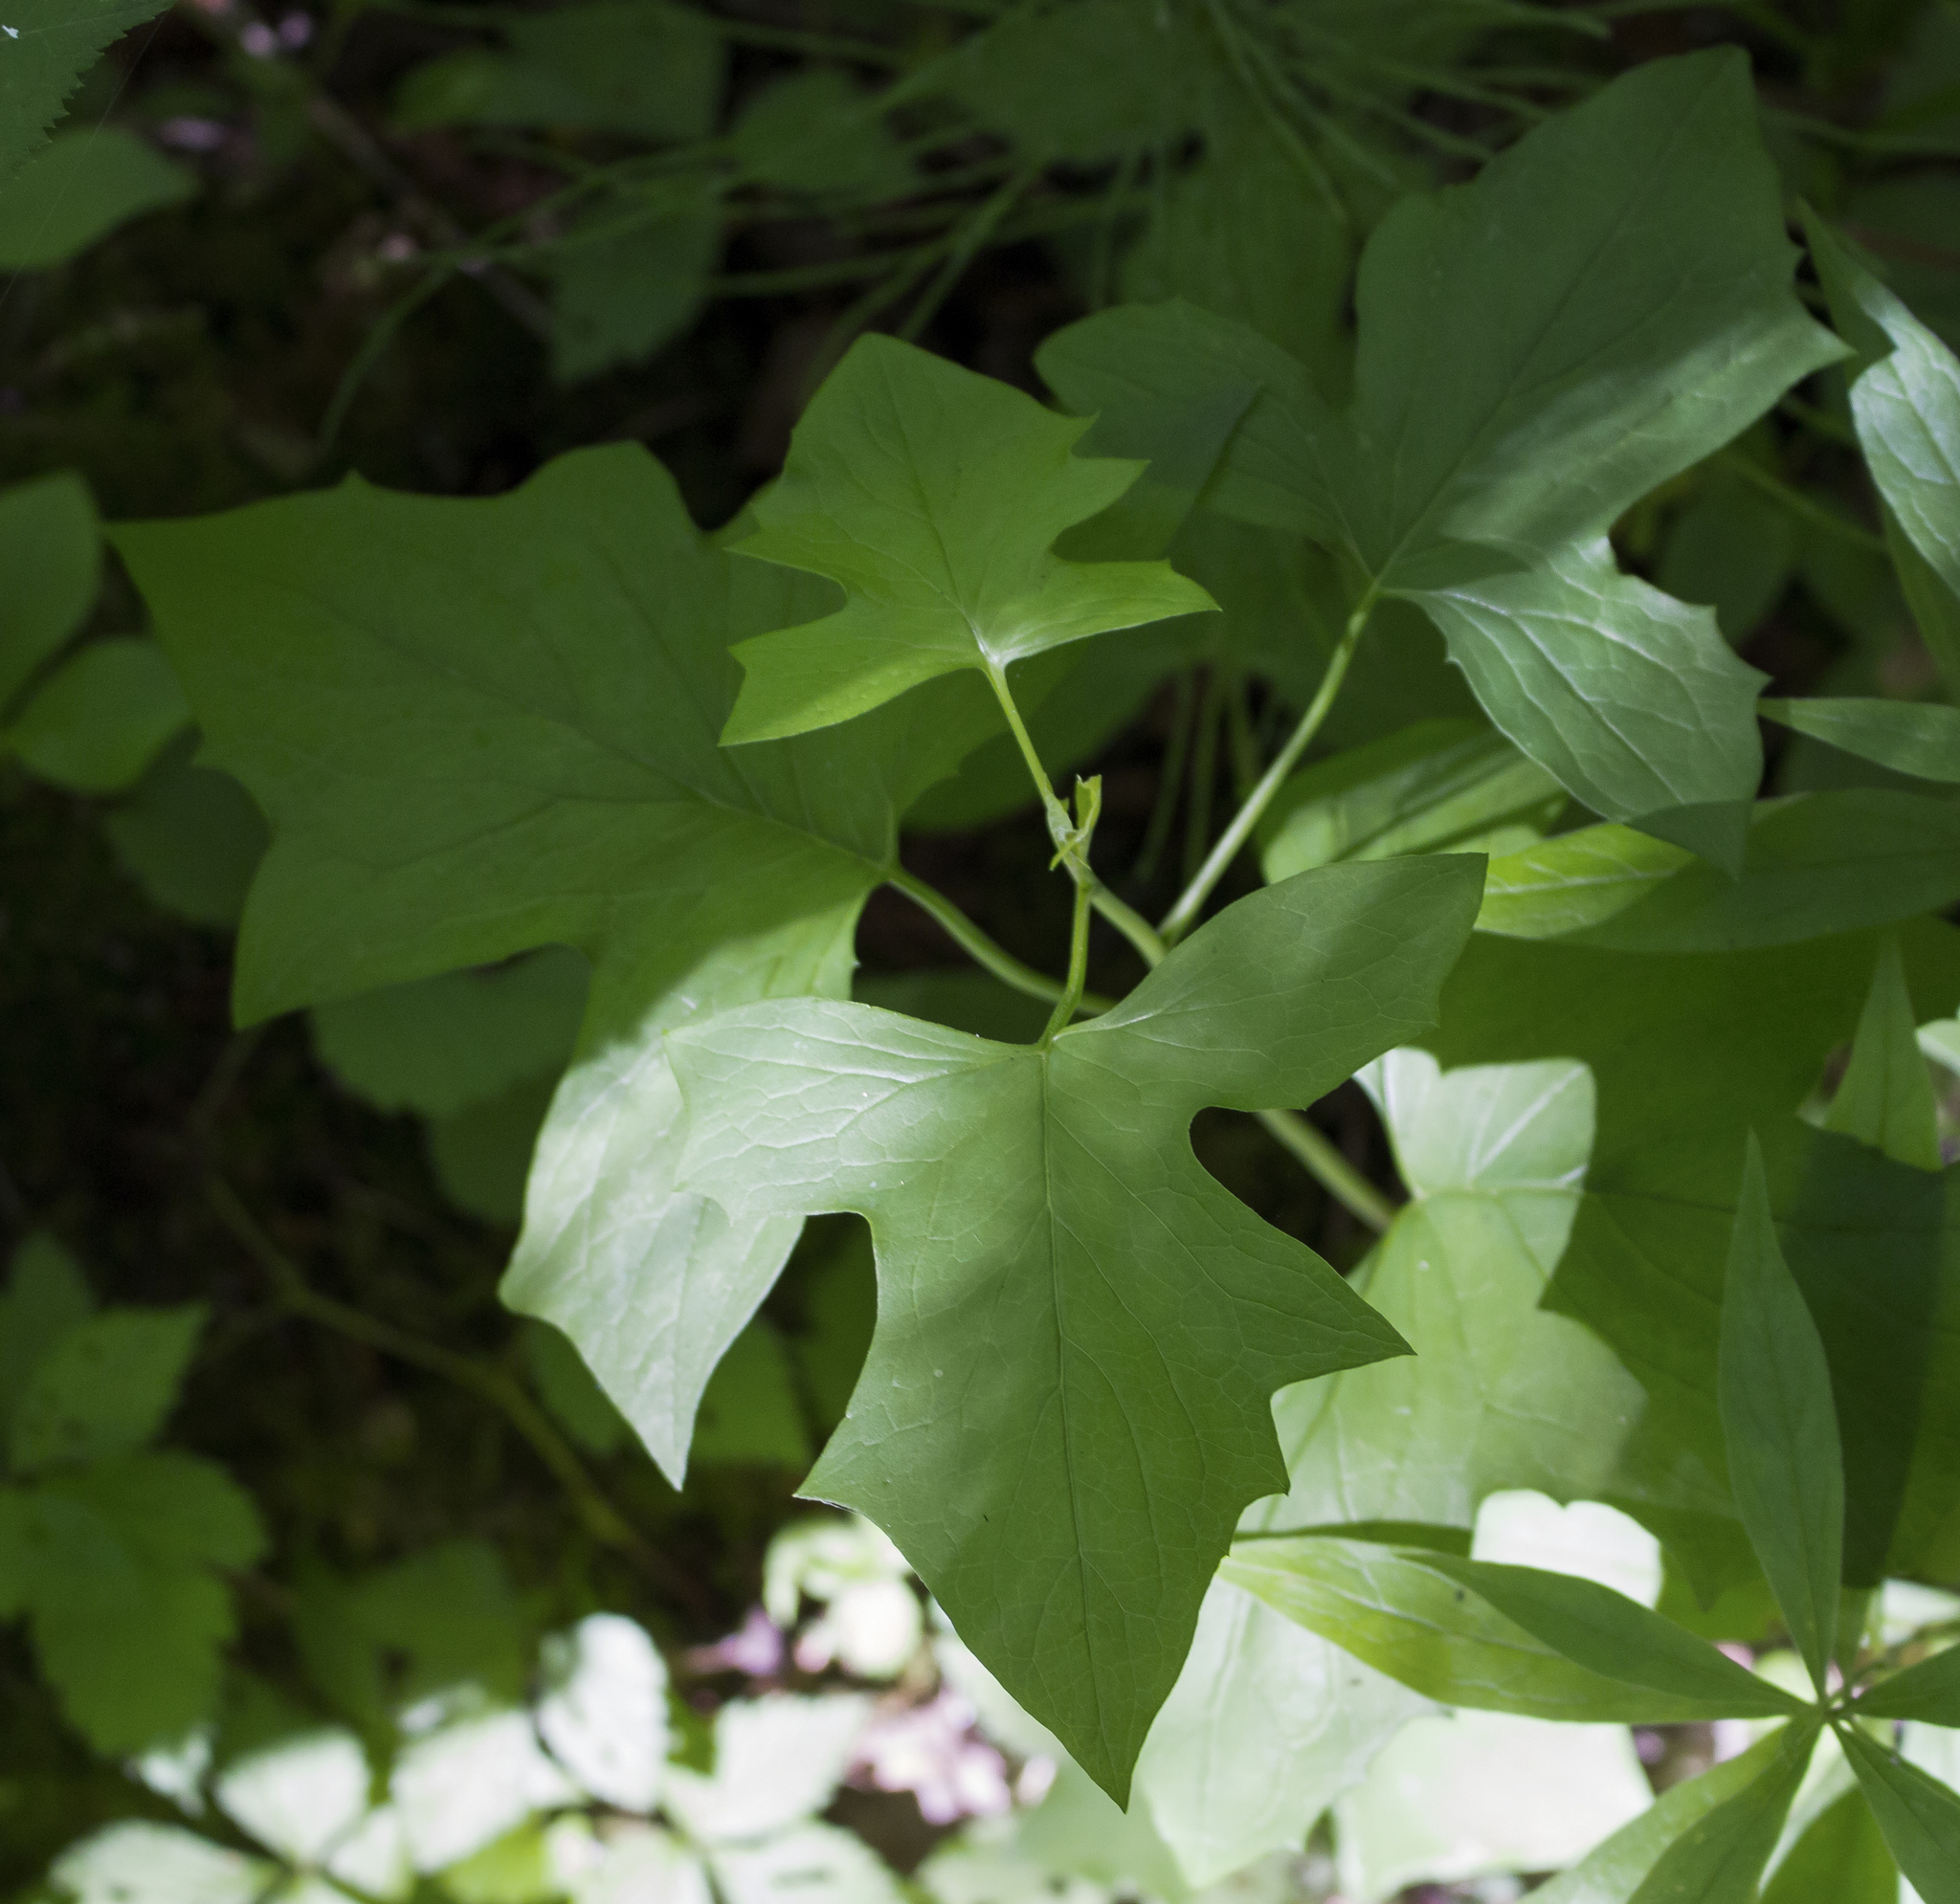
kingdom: Plantae
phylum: Tracheophyta
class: Magnoliopsida
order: Asterales
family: Asteraceae
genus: Nabalus
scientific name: Nabalus albus
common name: White rattlesnakeroot
